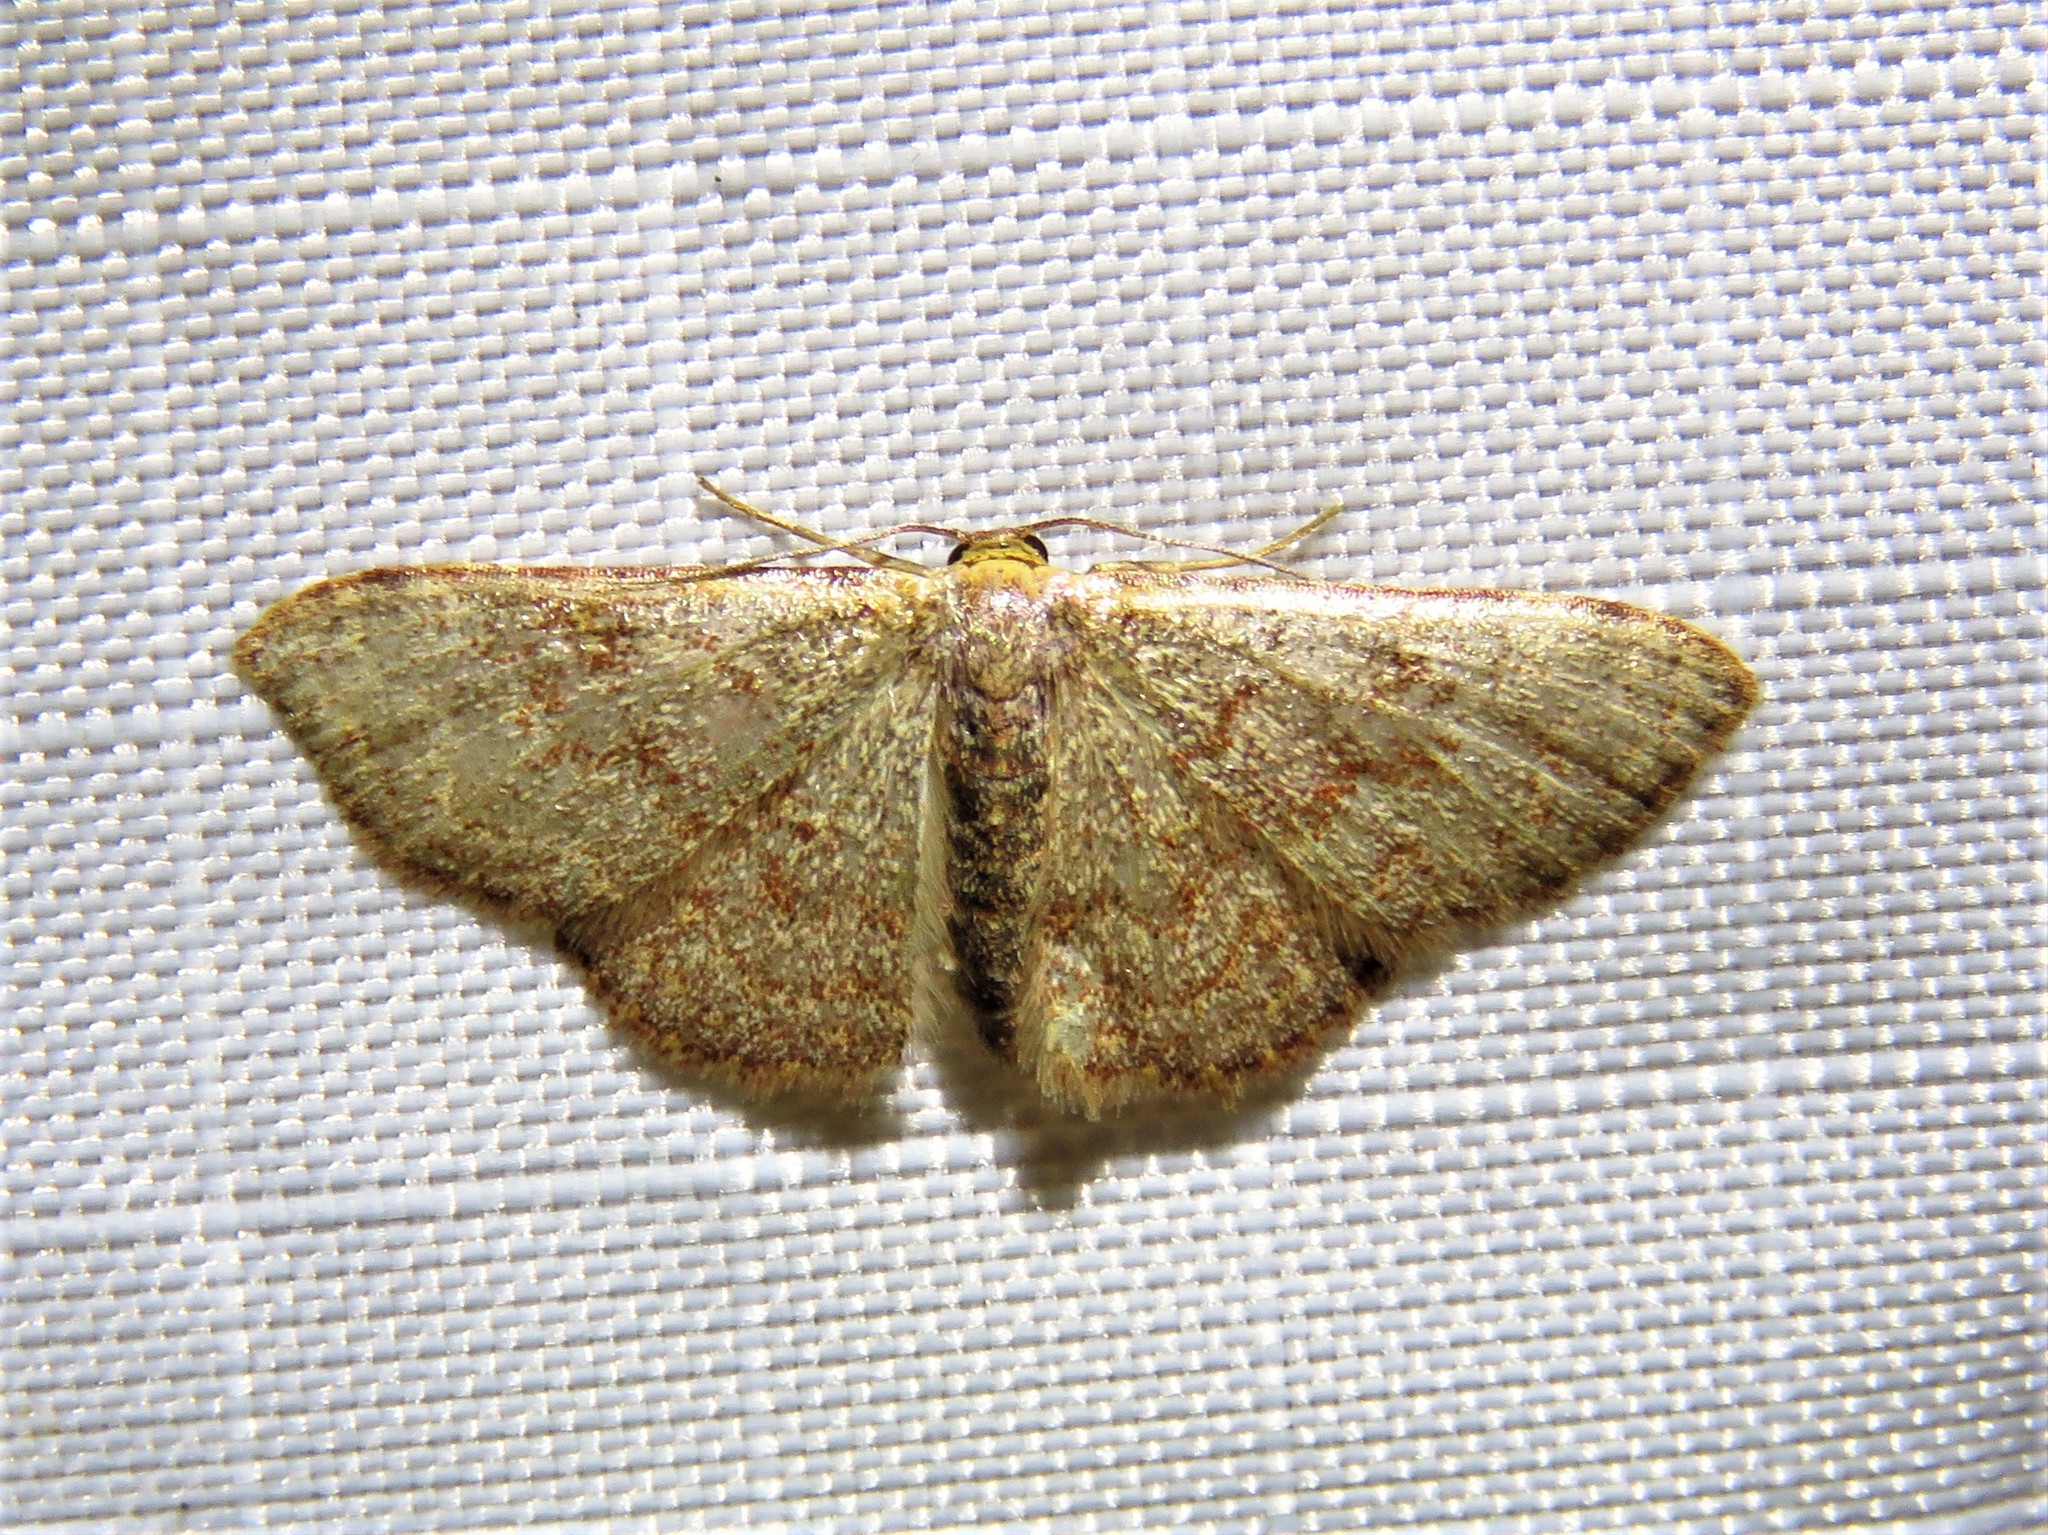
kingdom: Animalia
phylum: Arthropoda
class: Insecta
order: Lepidoptera
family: Geometridae
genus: Leptostales
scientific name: Leptostales pannaria
